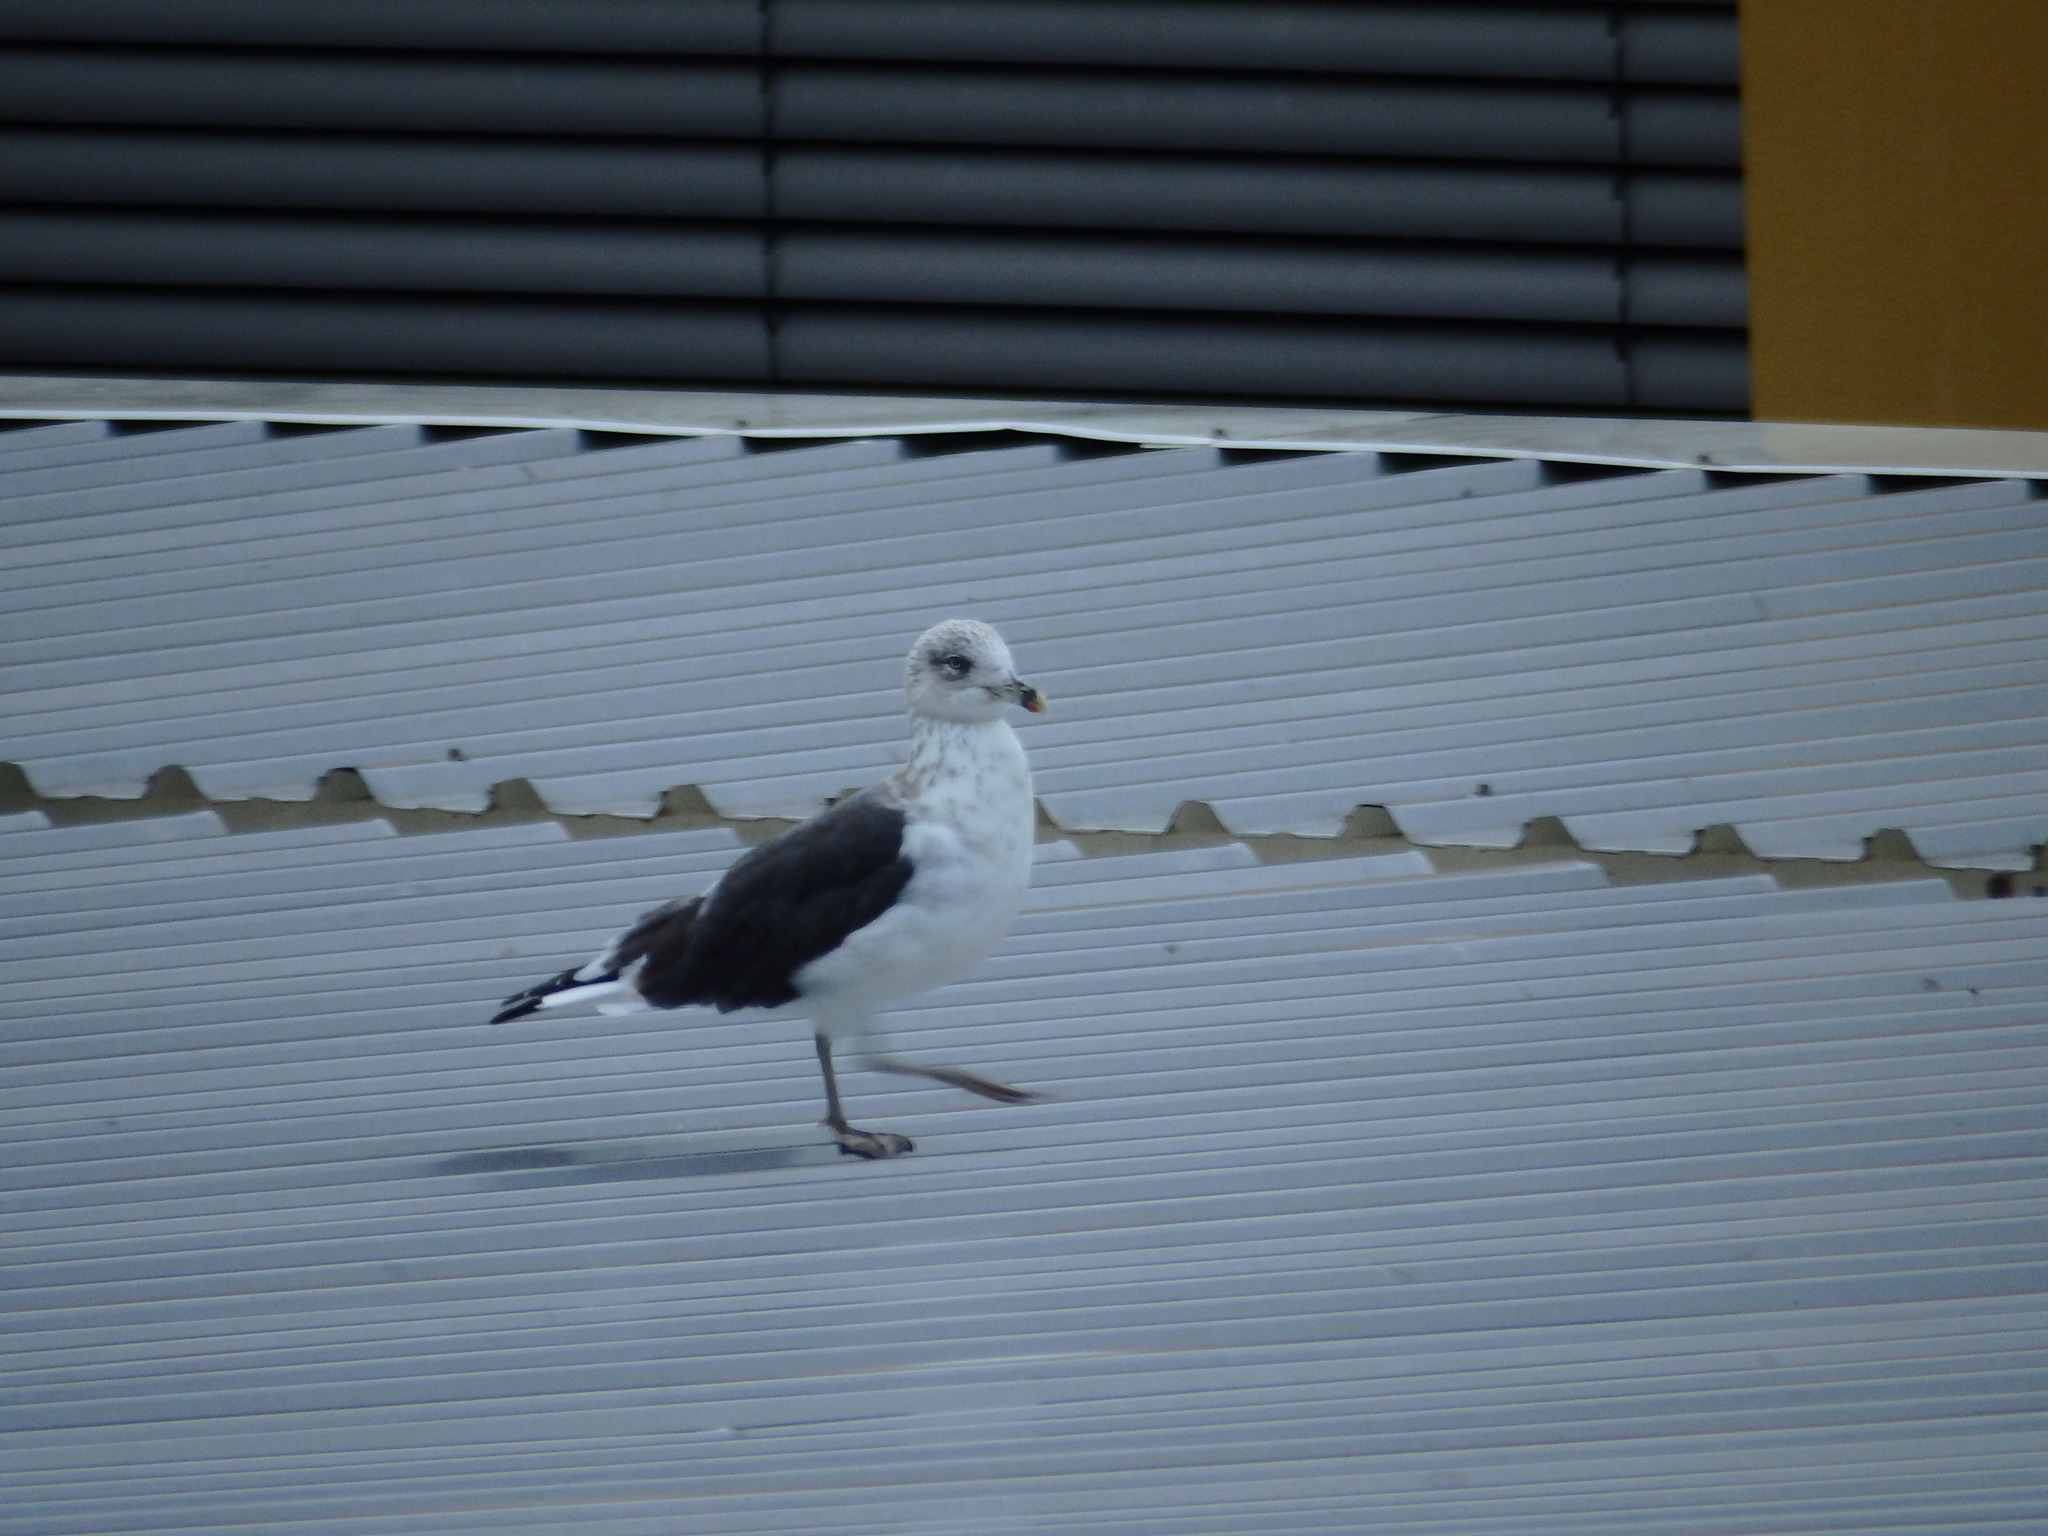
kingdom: Animalia
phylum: Chordata
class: Aves
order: Charadriiformes
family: Laridae
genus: Larus
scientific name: Larus fuscus
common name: Lesser black-backed gull
